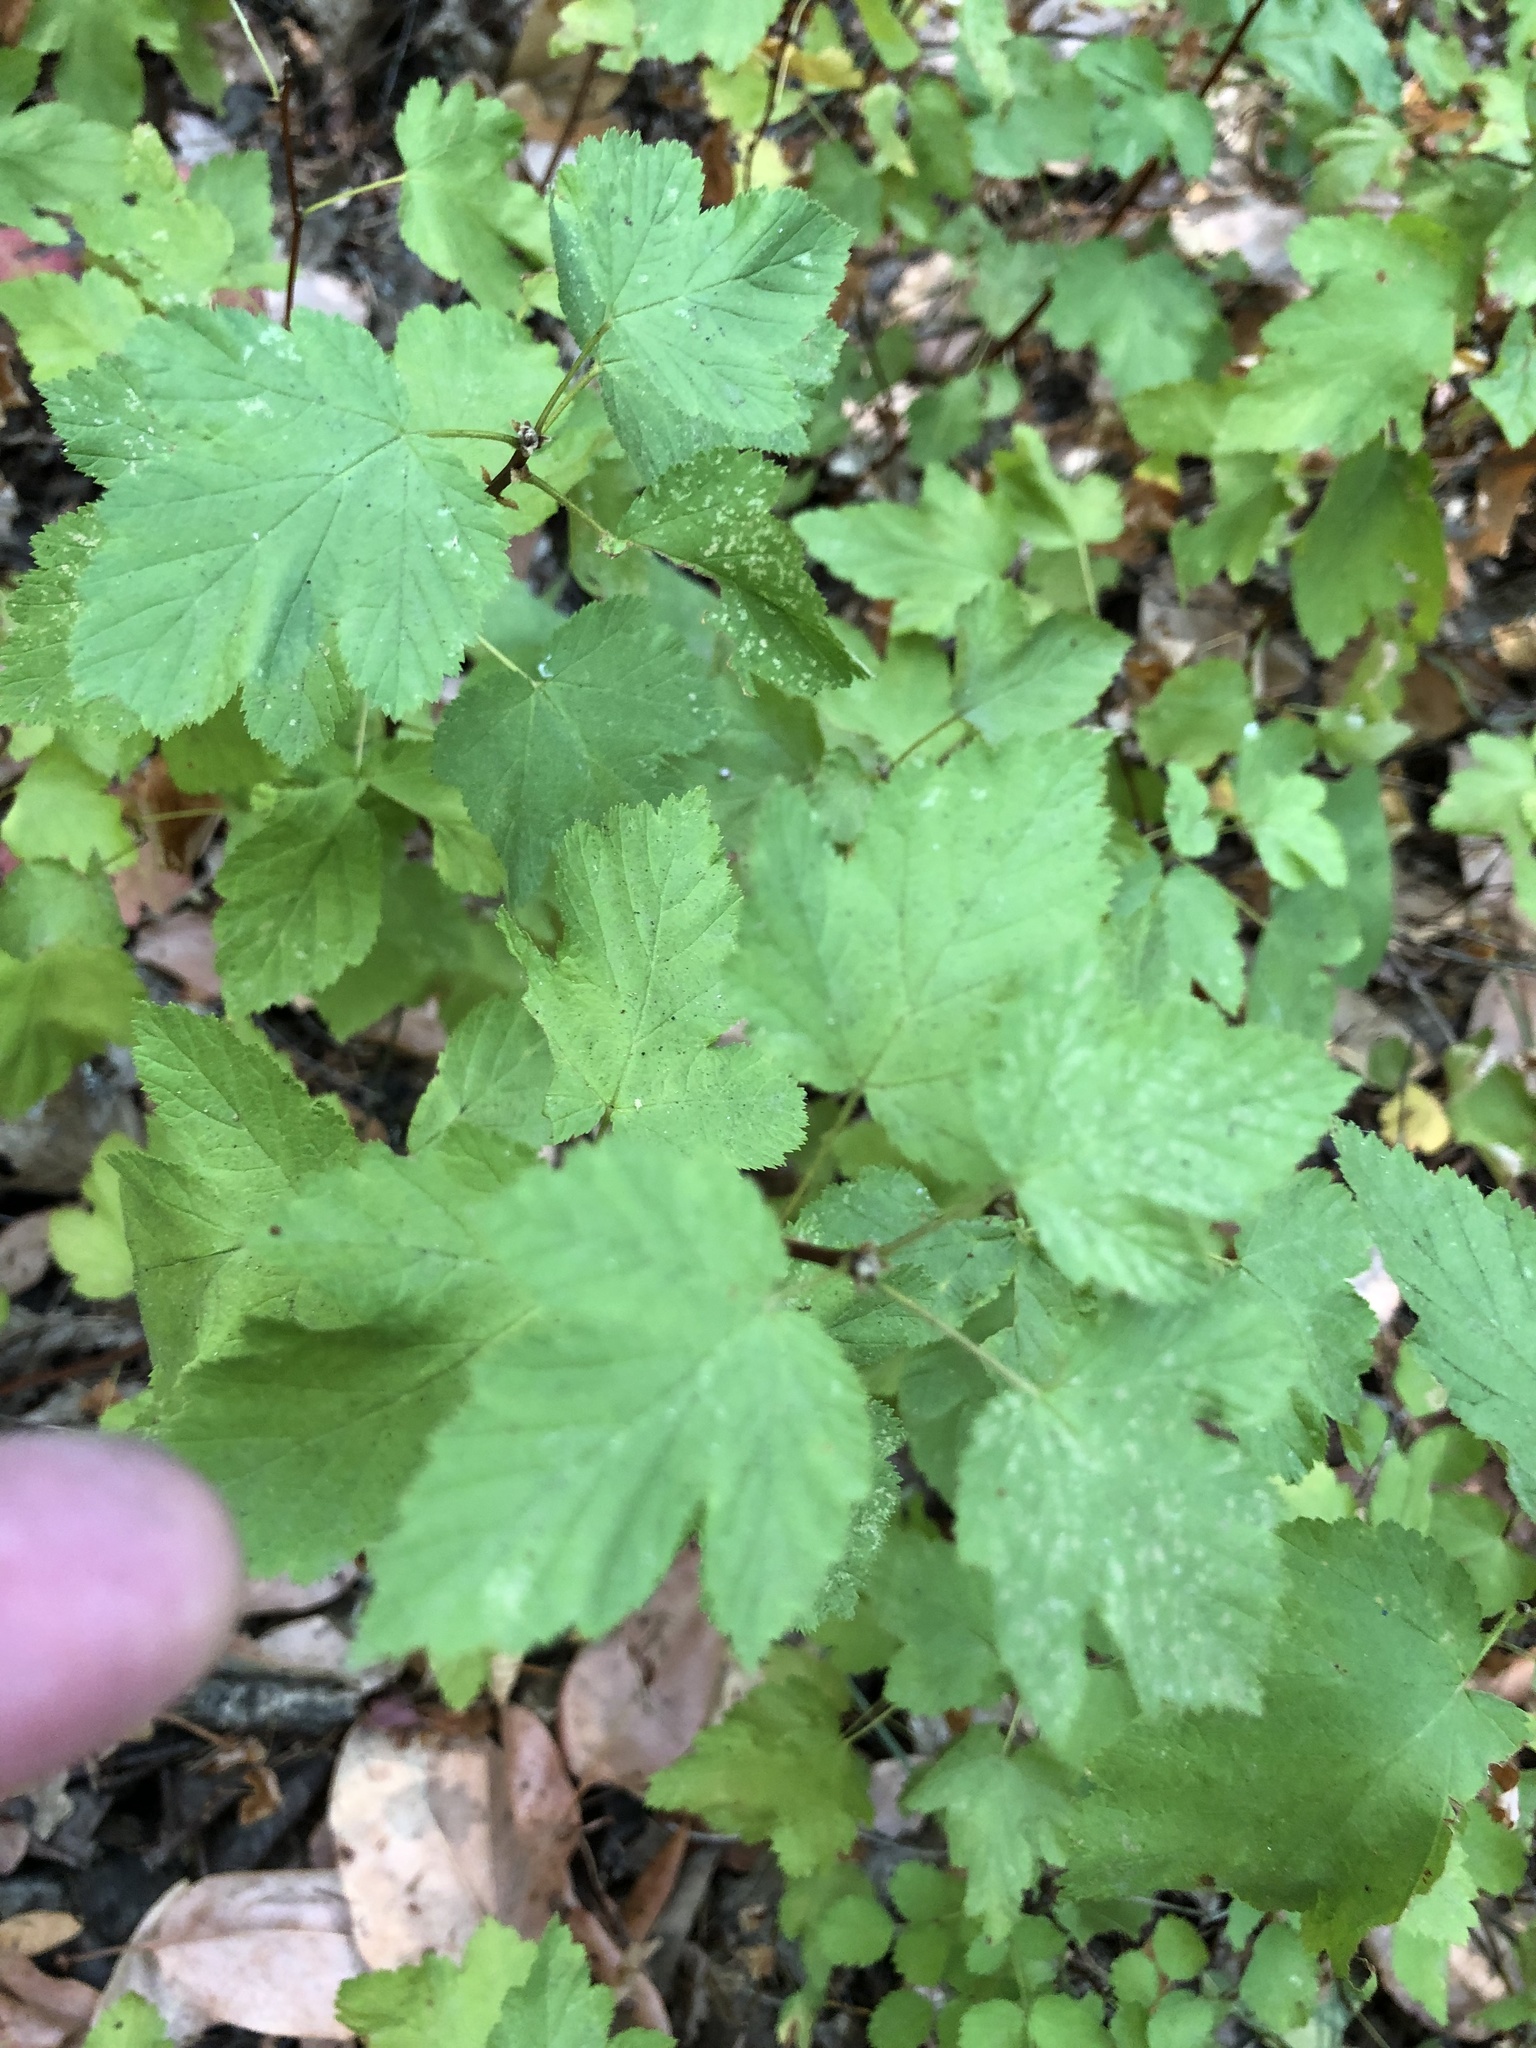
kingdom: Plantae
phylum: Tracheophyta
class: Magnoliopsida
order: Rosales
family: Rosaceae
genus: Physocarpus
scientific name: Physocarpus capitatus
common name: Pacific ninebark
